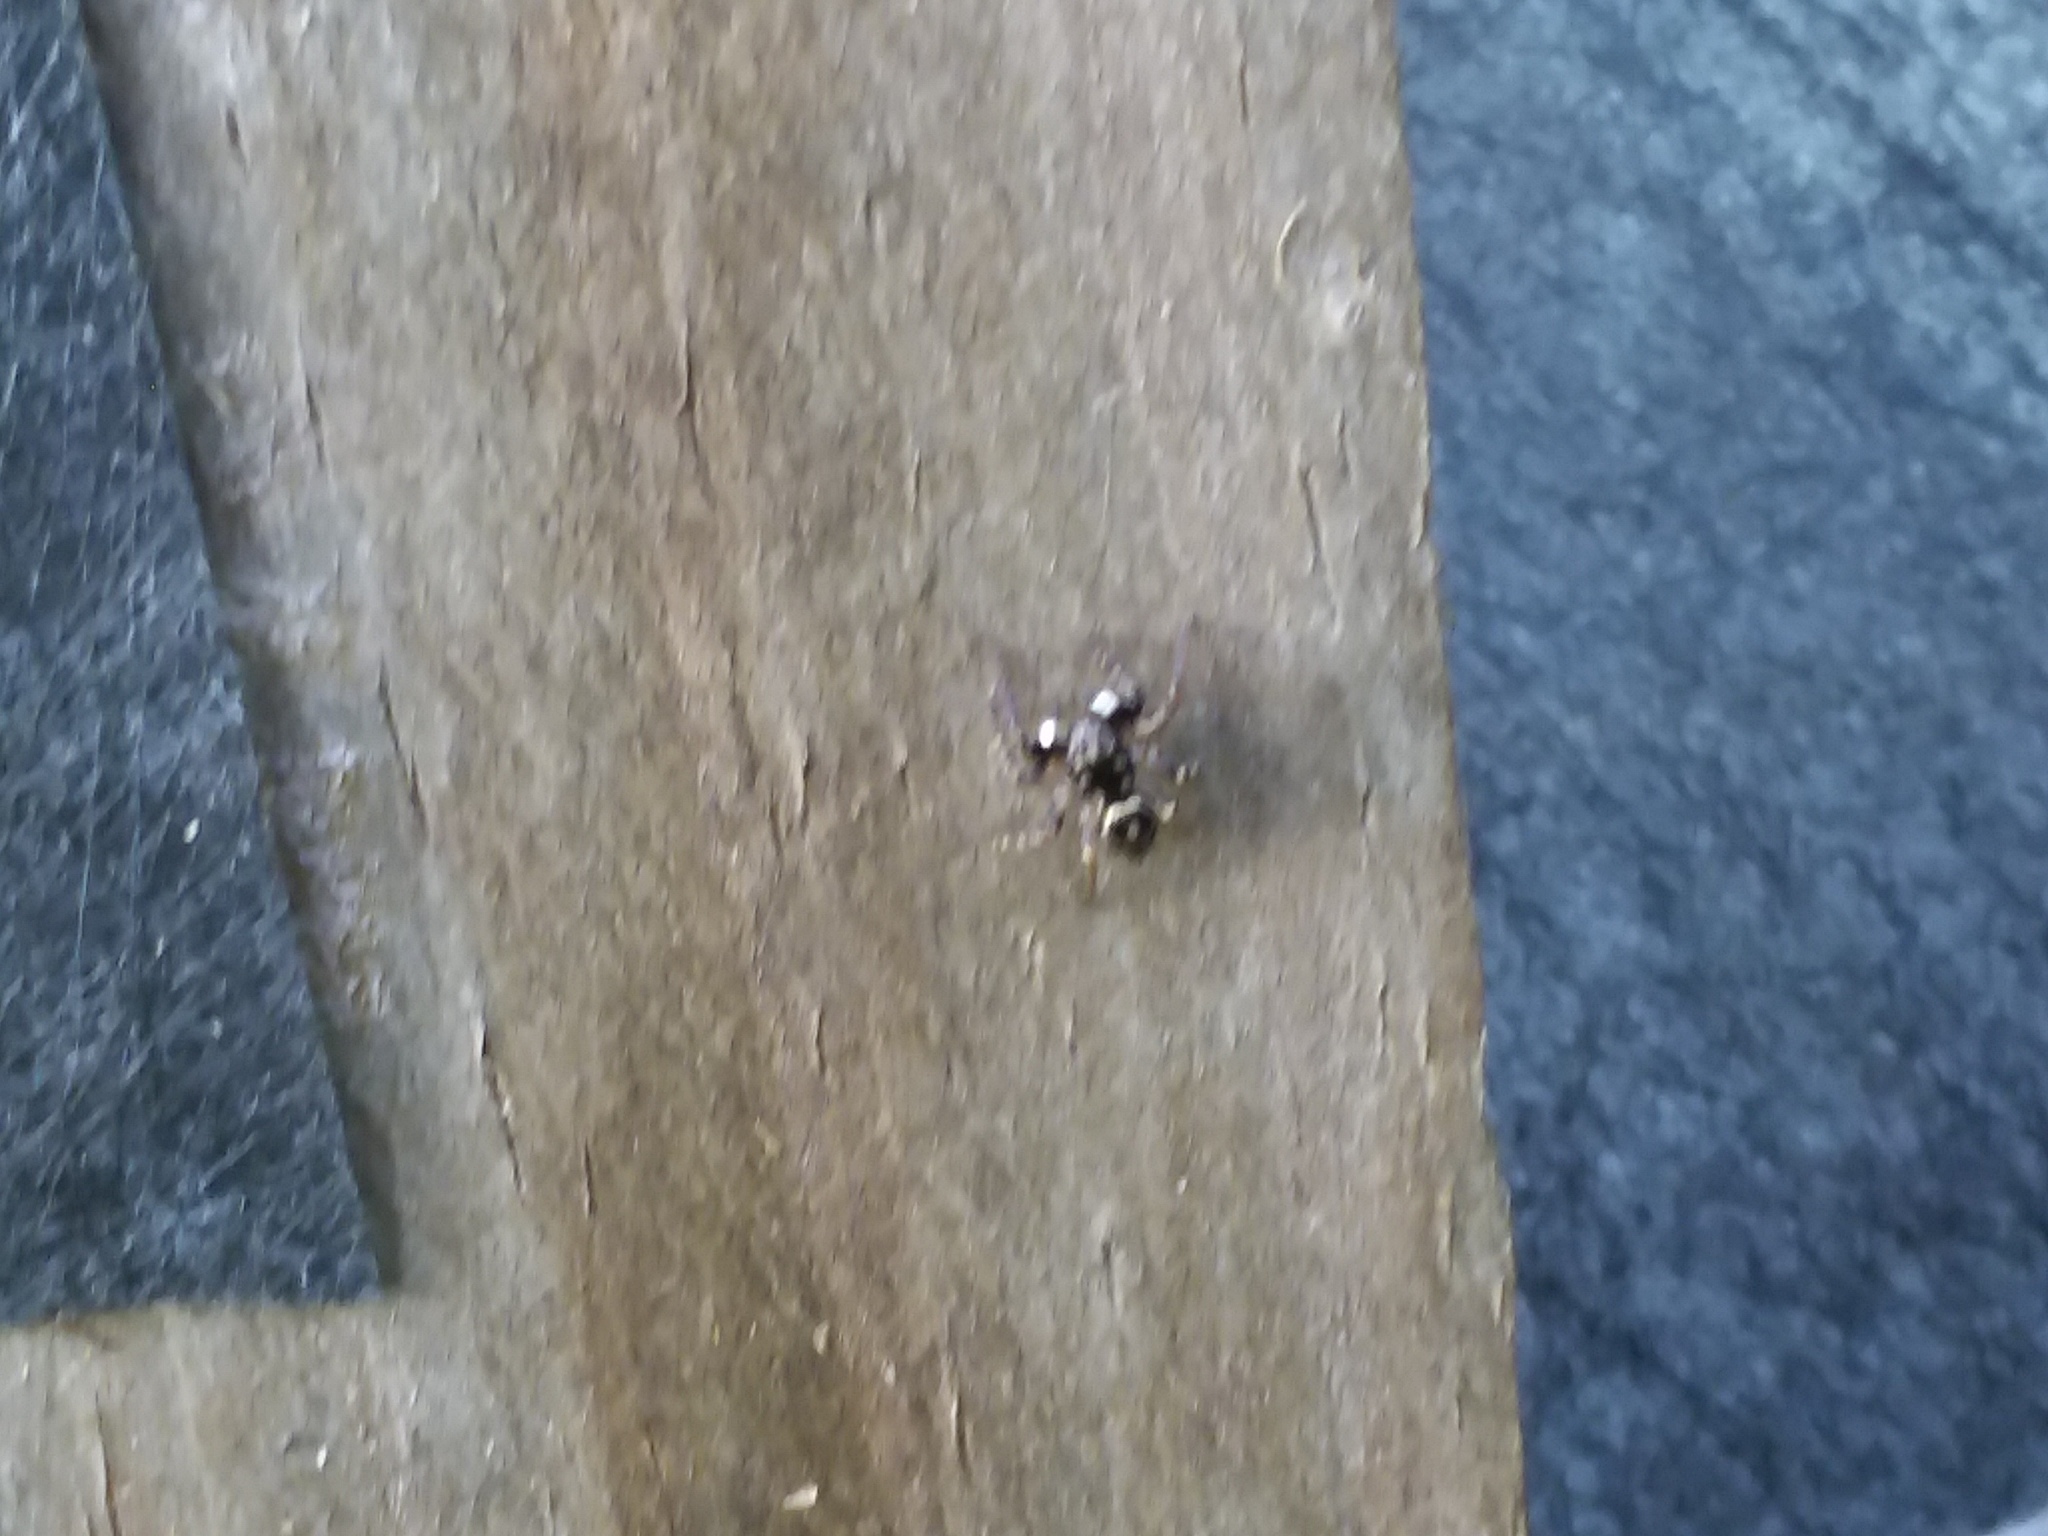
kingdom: Animalia
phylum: Arthropoda
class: Arachnida
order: Araneae
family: Salticidae
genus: Anasaitis
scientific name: Anasaitis canosa
